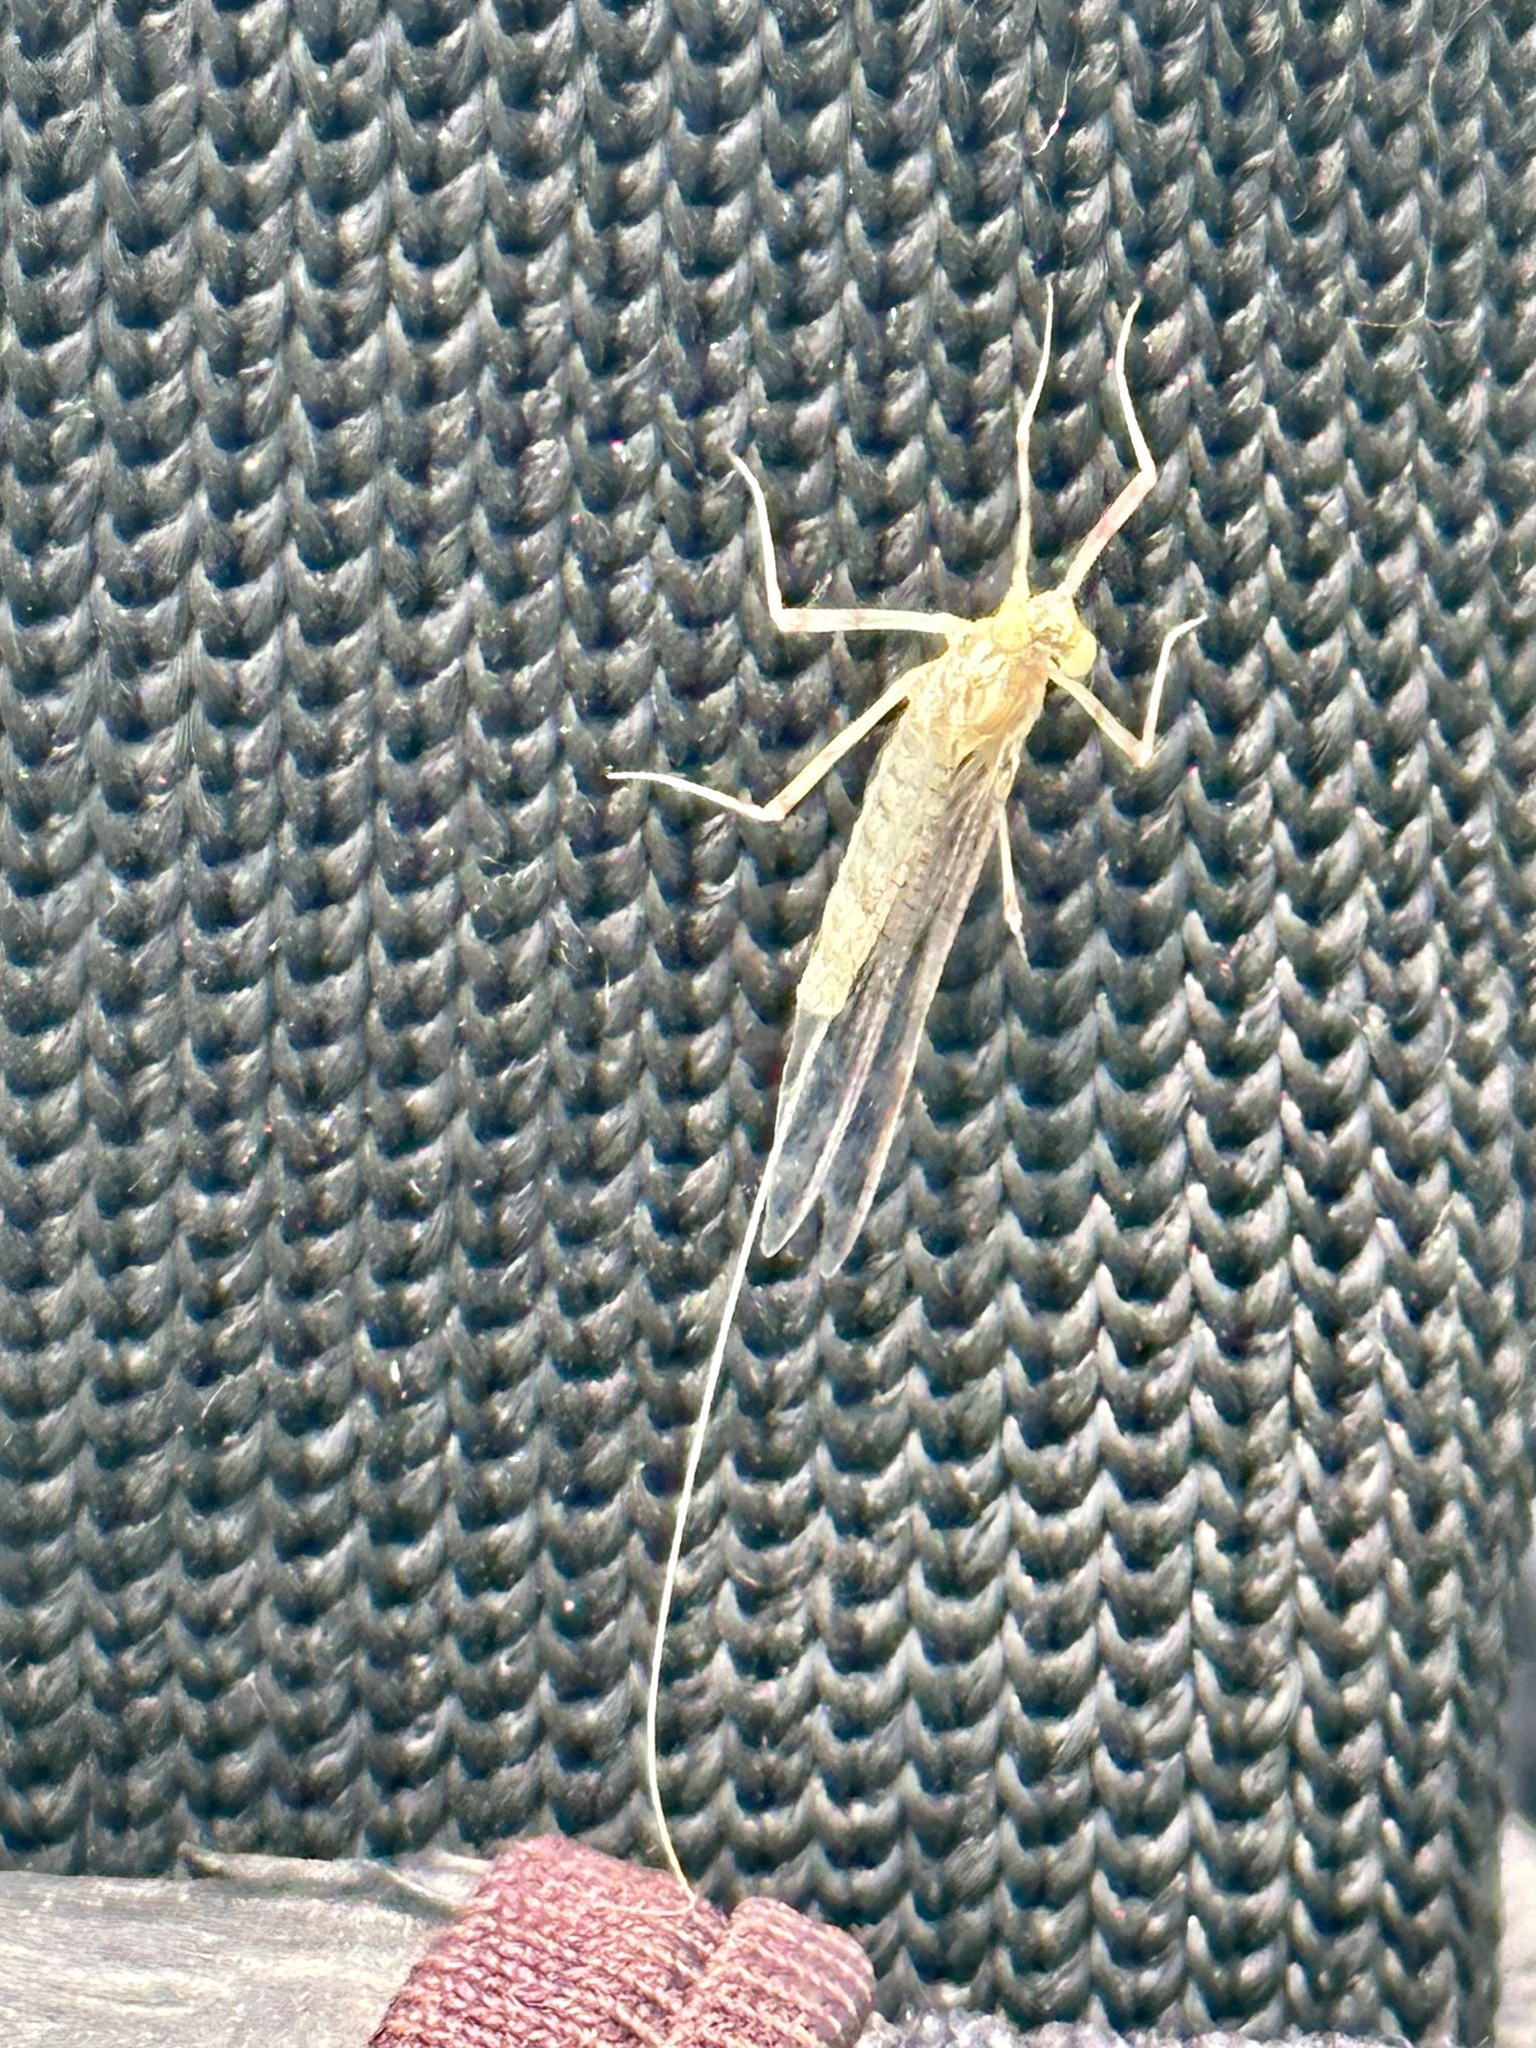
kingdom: Animalia
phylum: Arthropoda
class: Insecta
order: Ephemeroptera
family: Heptageniidae
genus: Stenonema
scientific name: Stenonema femoratum
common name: Dark cahill
